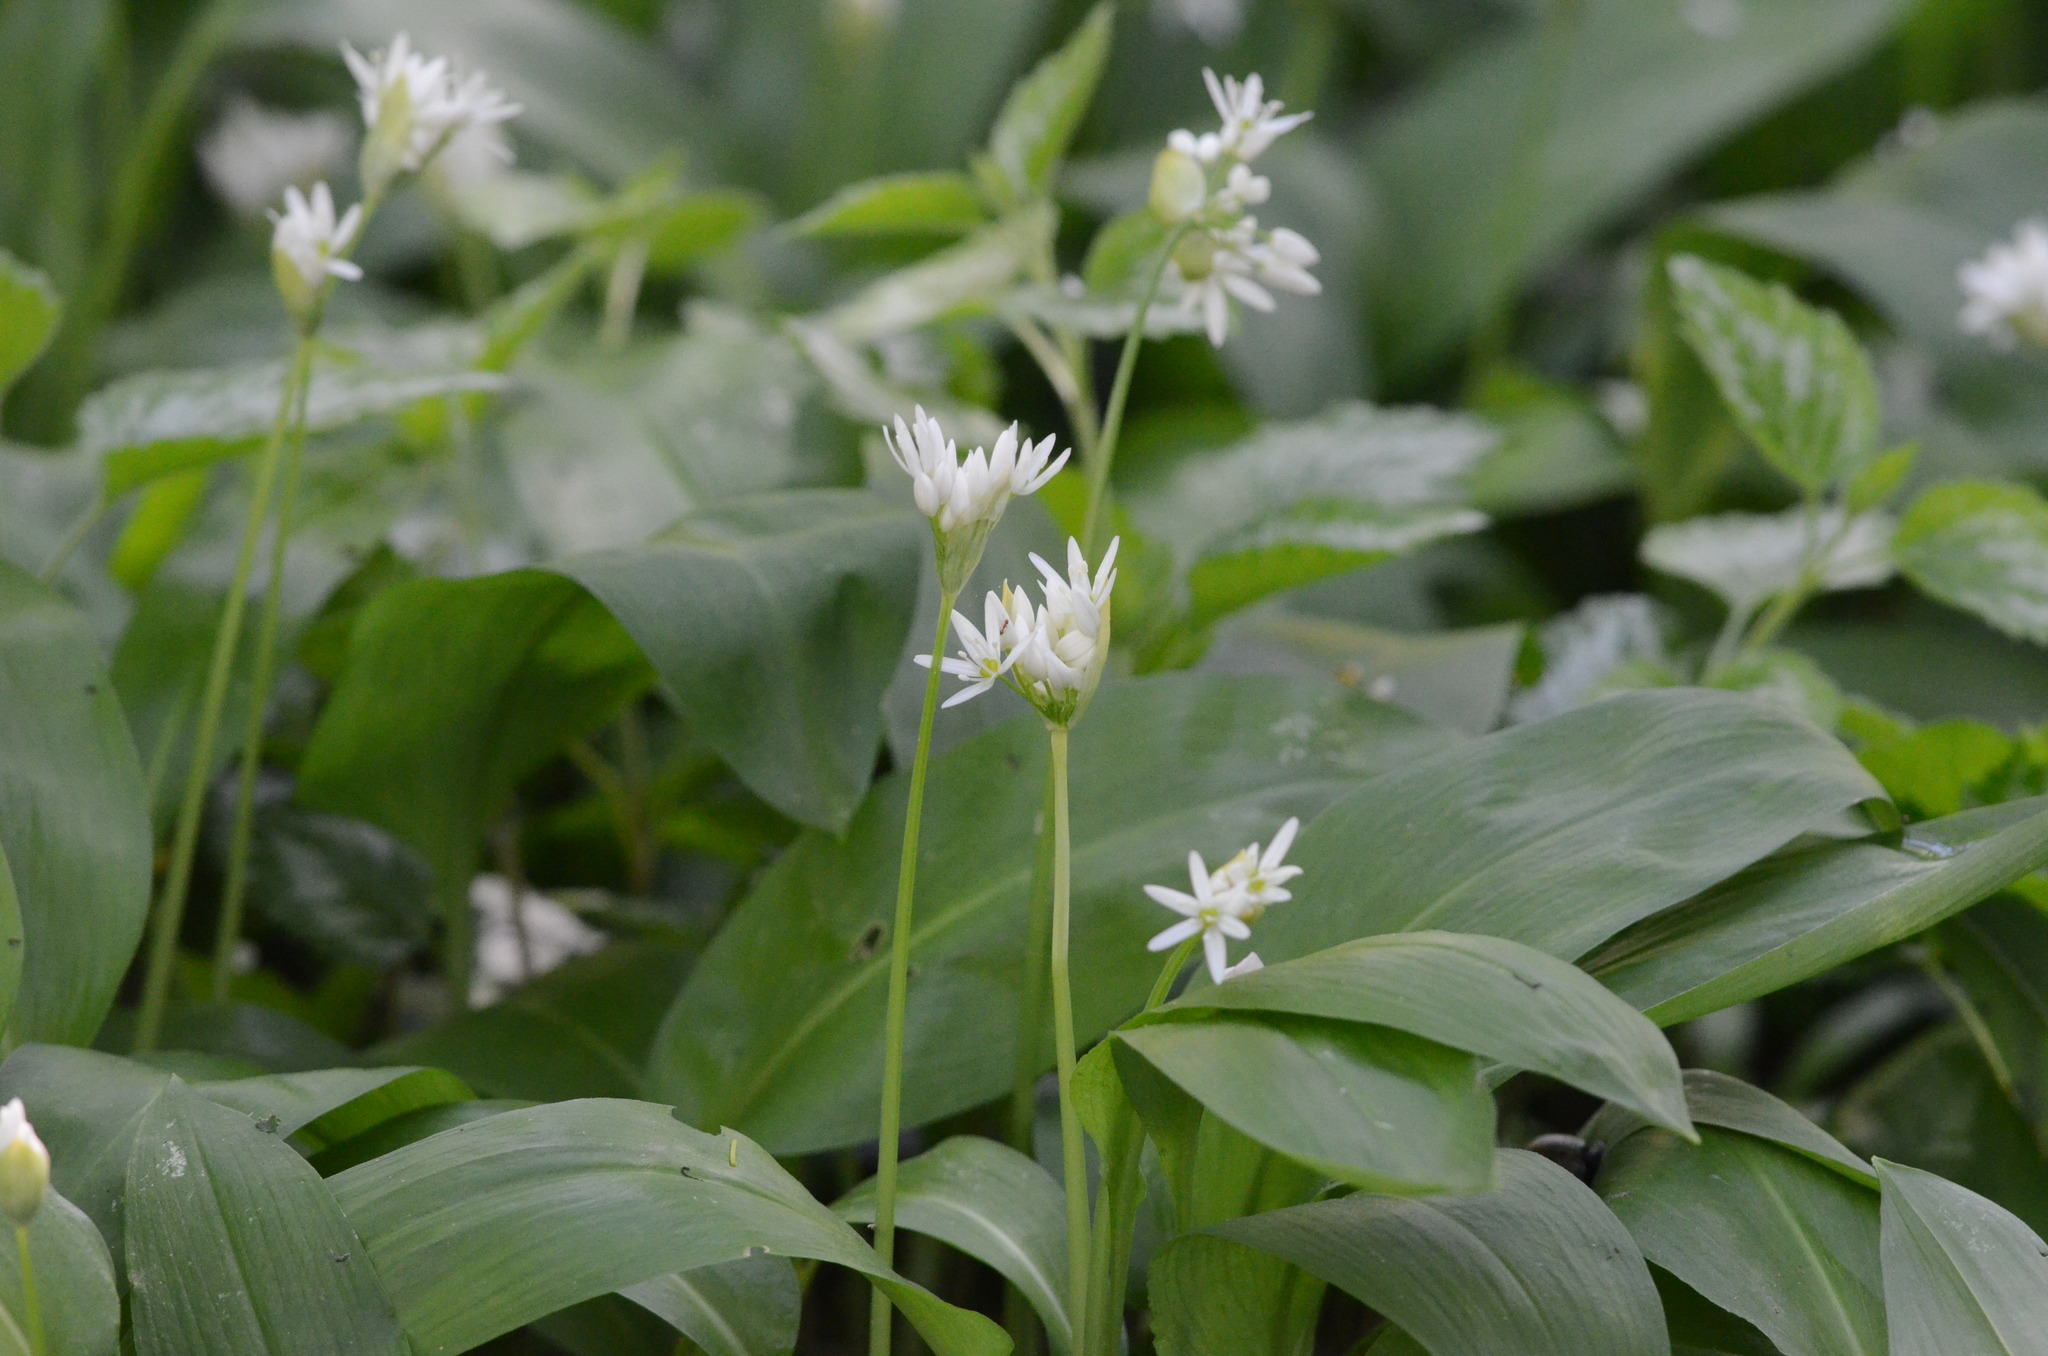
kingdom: Plantae
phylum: Tracheophyta
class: Liliopsida
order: Asparagales
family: Amaryllidaceae
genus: Allium
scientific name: Allium ursinum
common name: Ramsons
